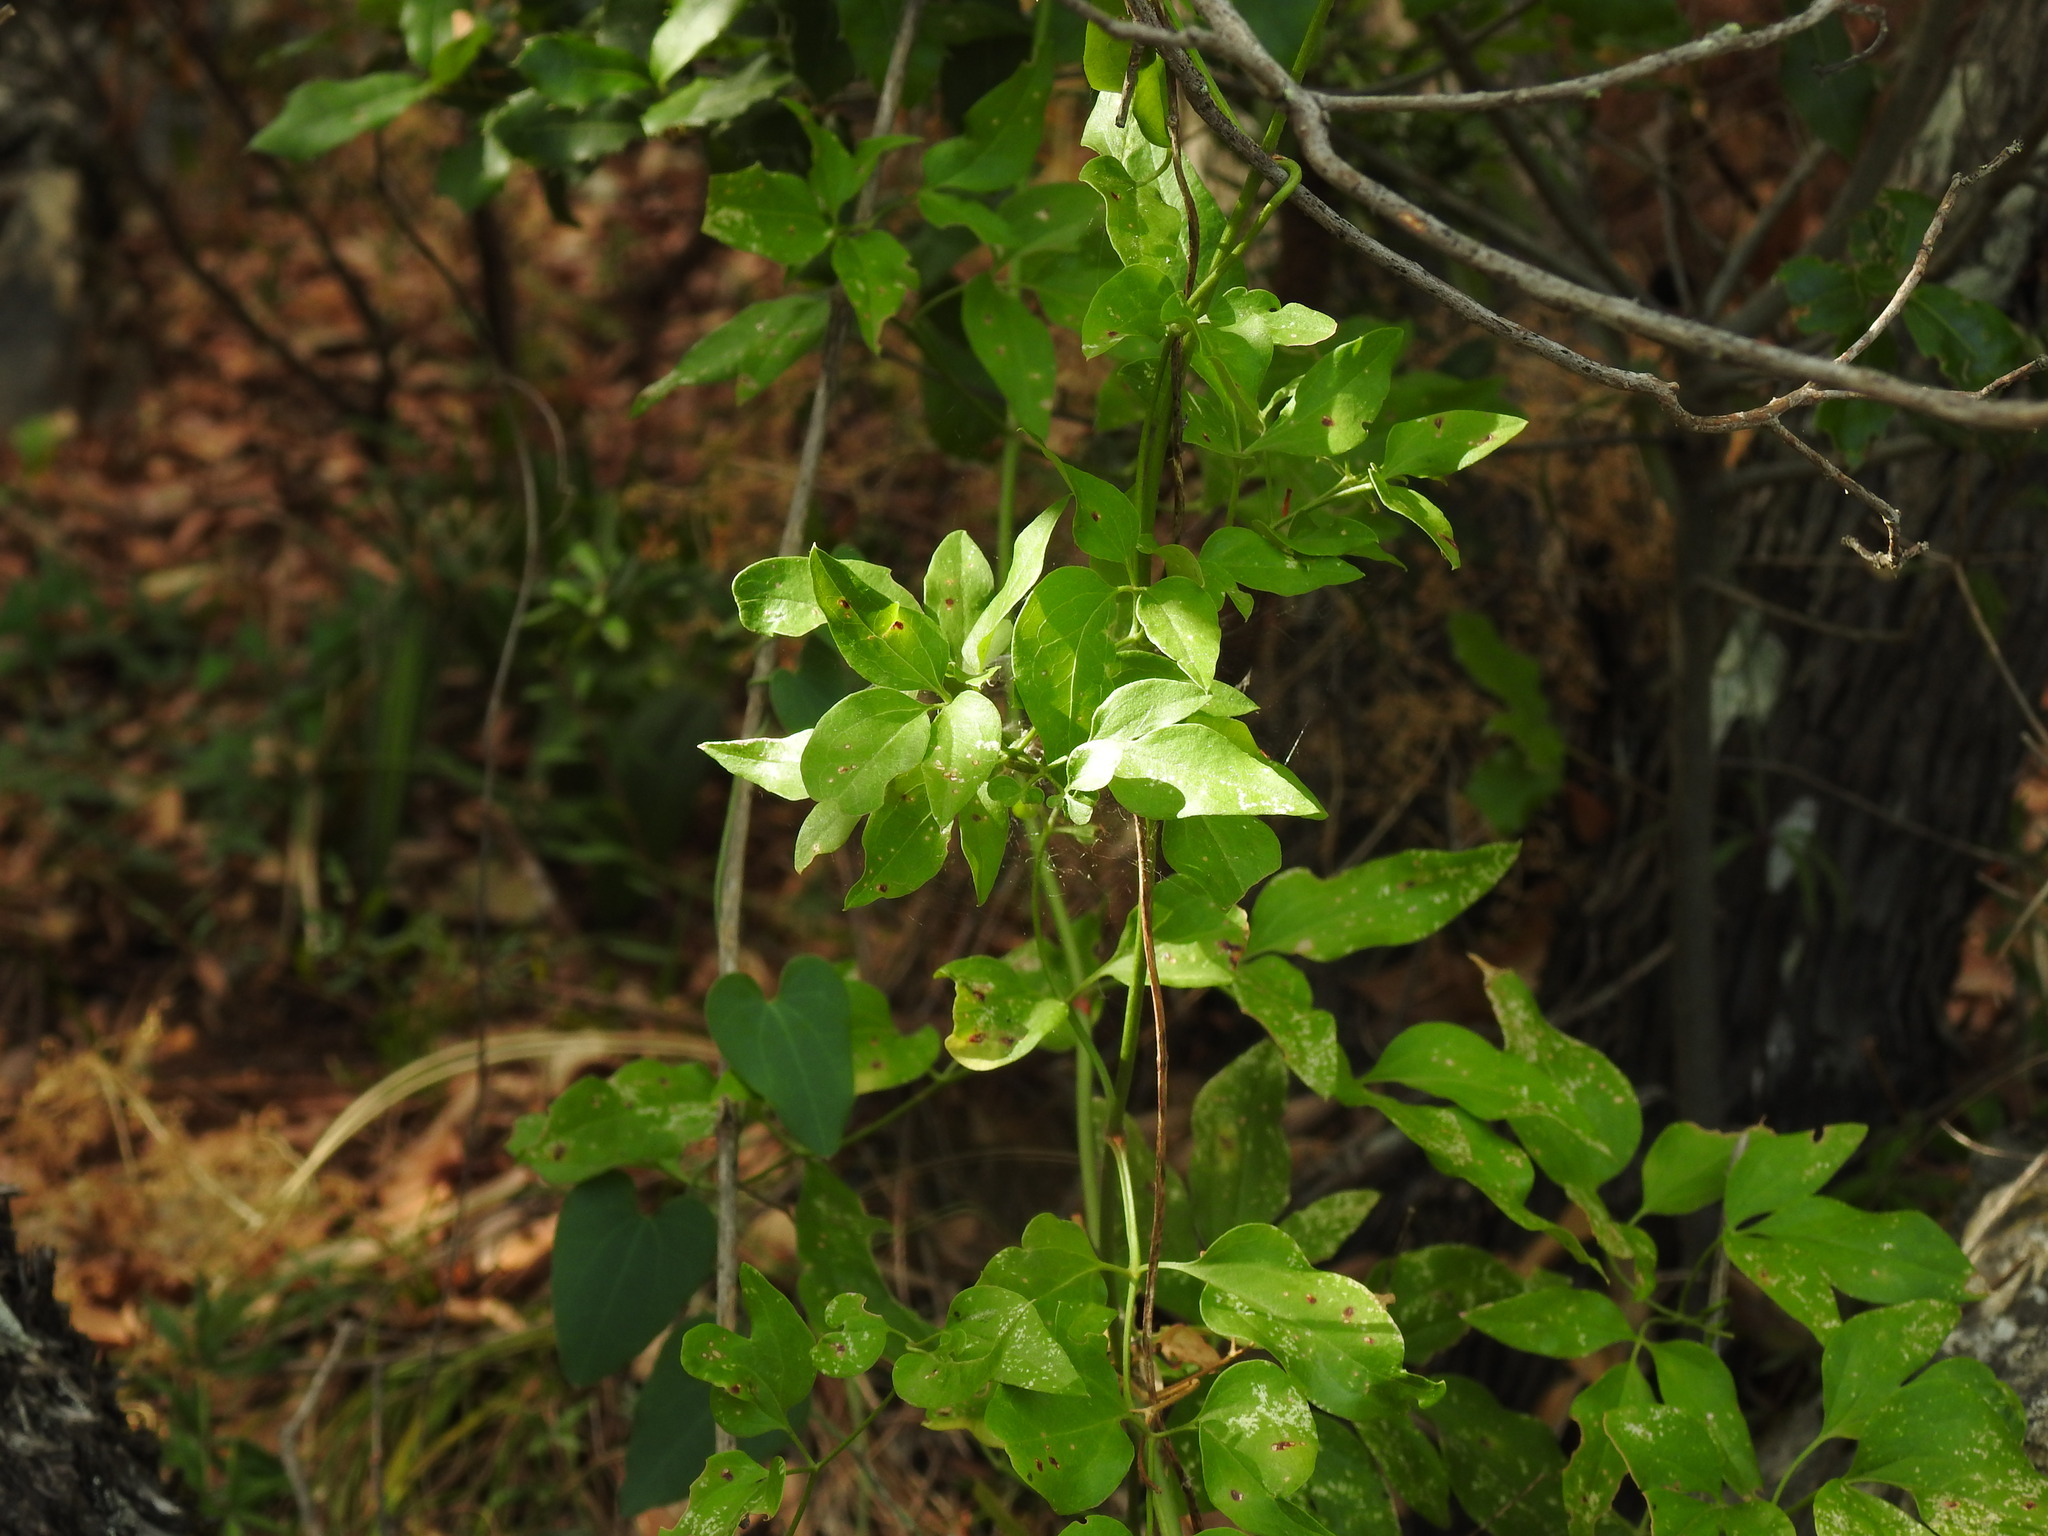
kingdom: Plantae
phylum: Tracheophyta
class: Magnoliopsida
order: Ranunculales
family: Ranunculaceae
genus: Clematis
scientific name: Clematis flammula
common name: Virgin's-bower
